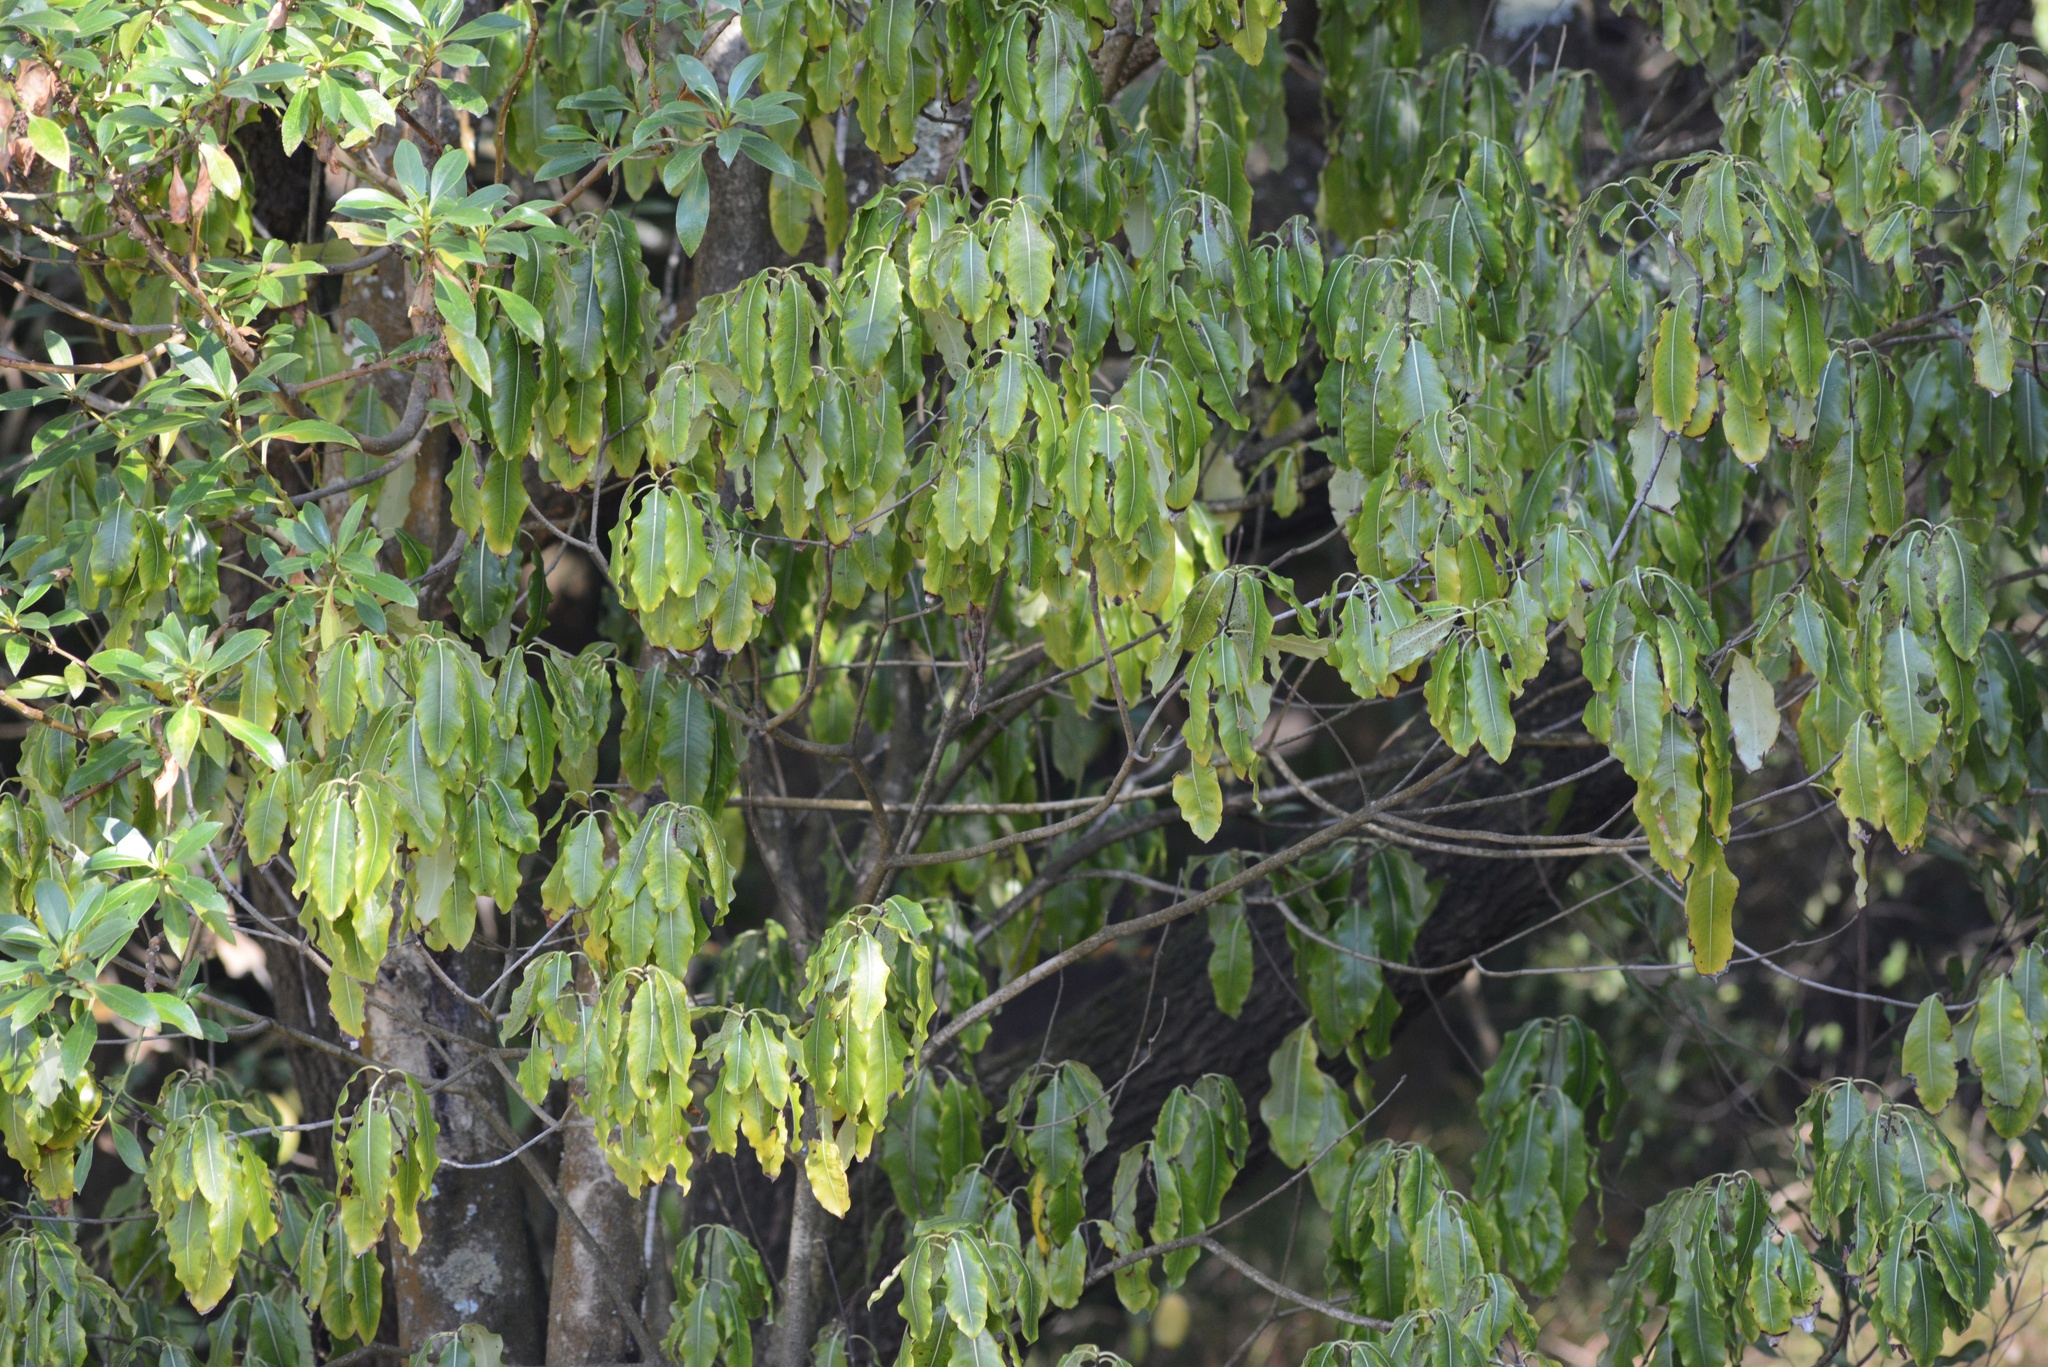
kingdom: Plantae
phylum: Tracheophyta
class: Magnoliopsida
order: Apiales
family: Pittosporaceae
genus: Pittosporum
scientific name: Pittosporum eugenioides
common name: Lemonwood
